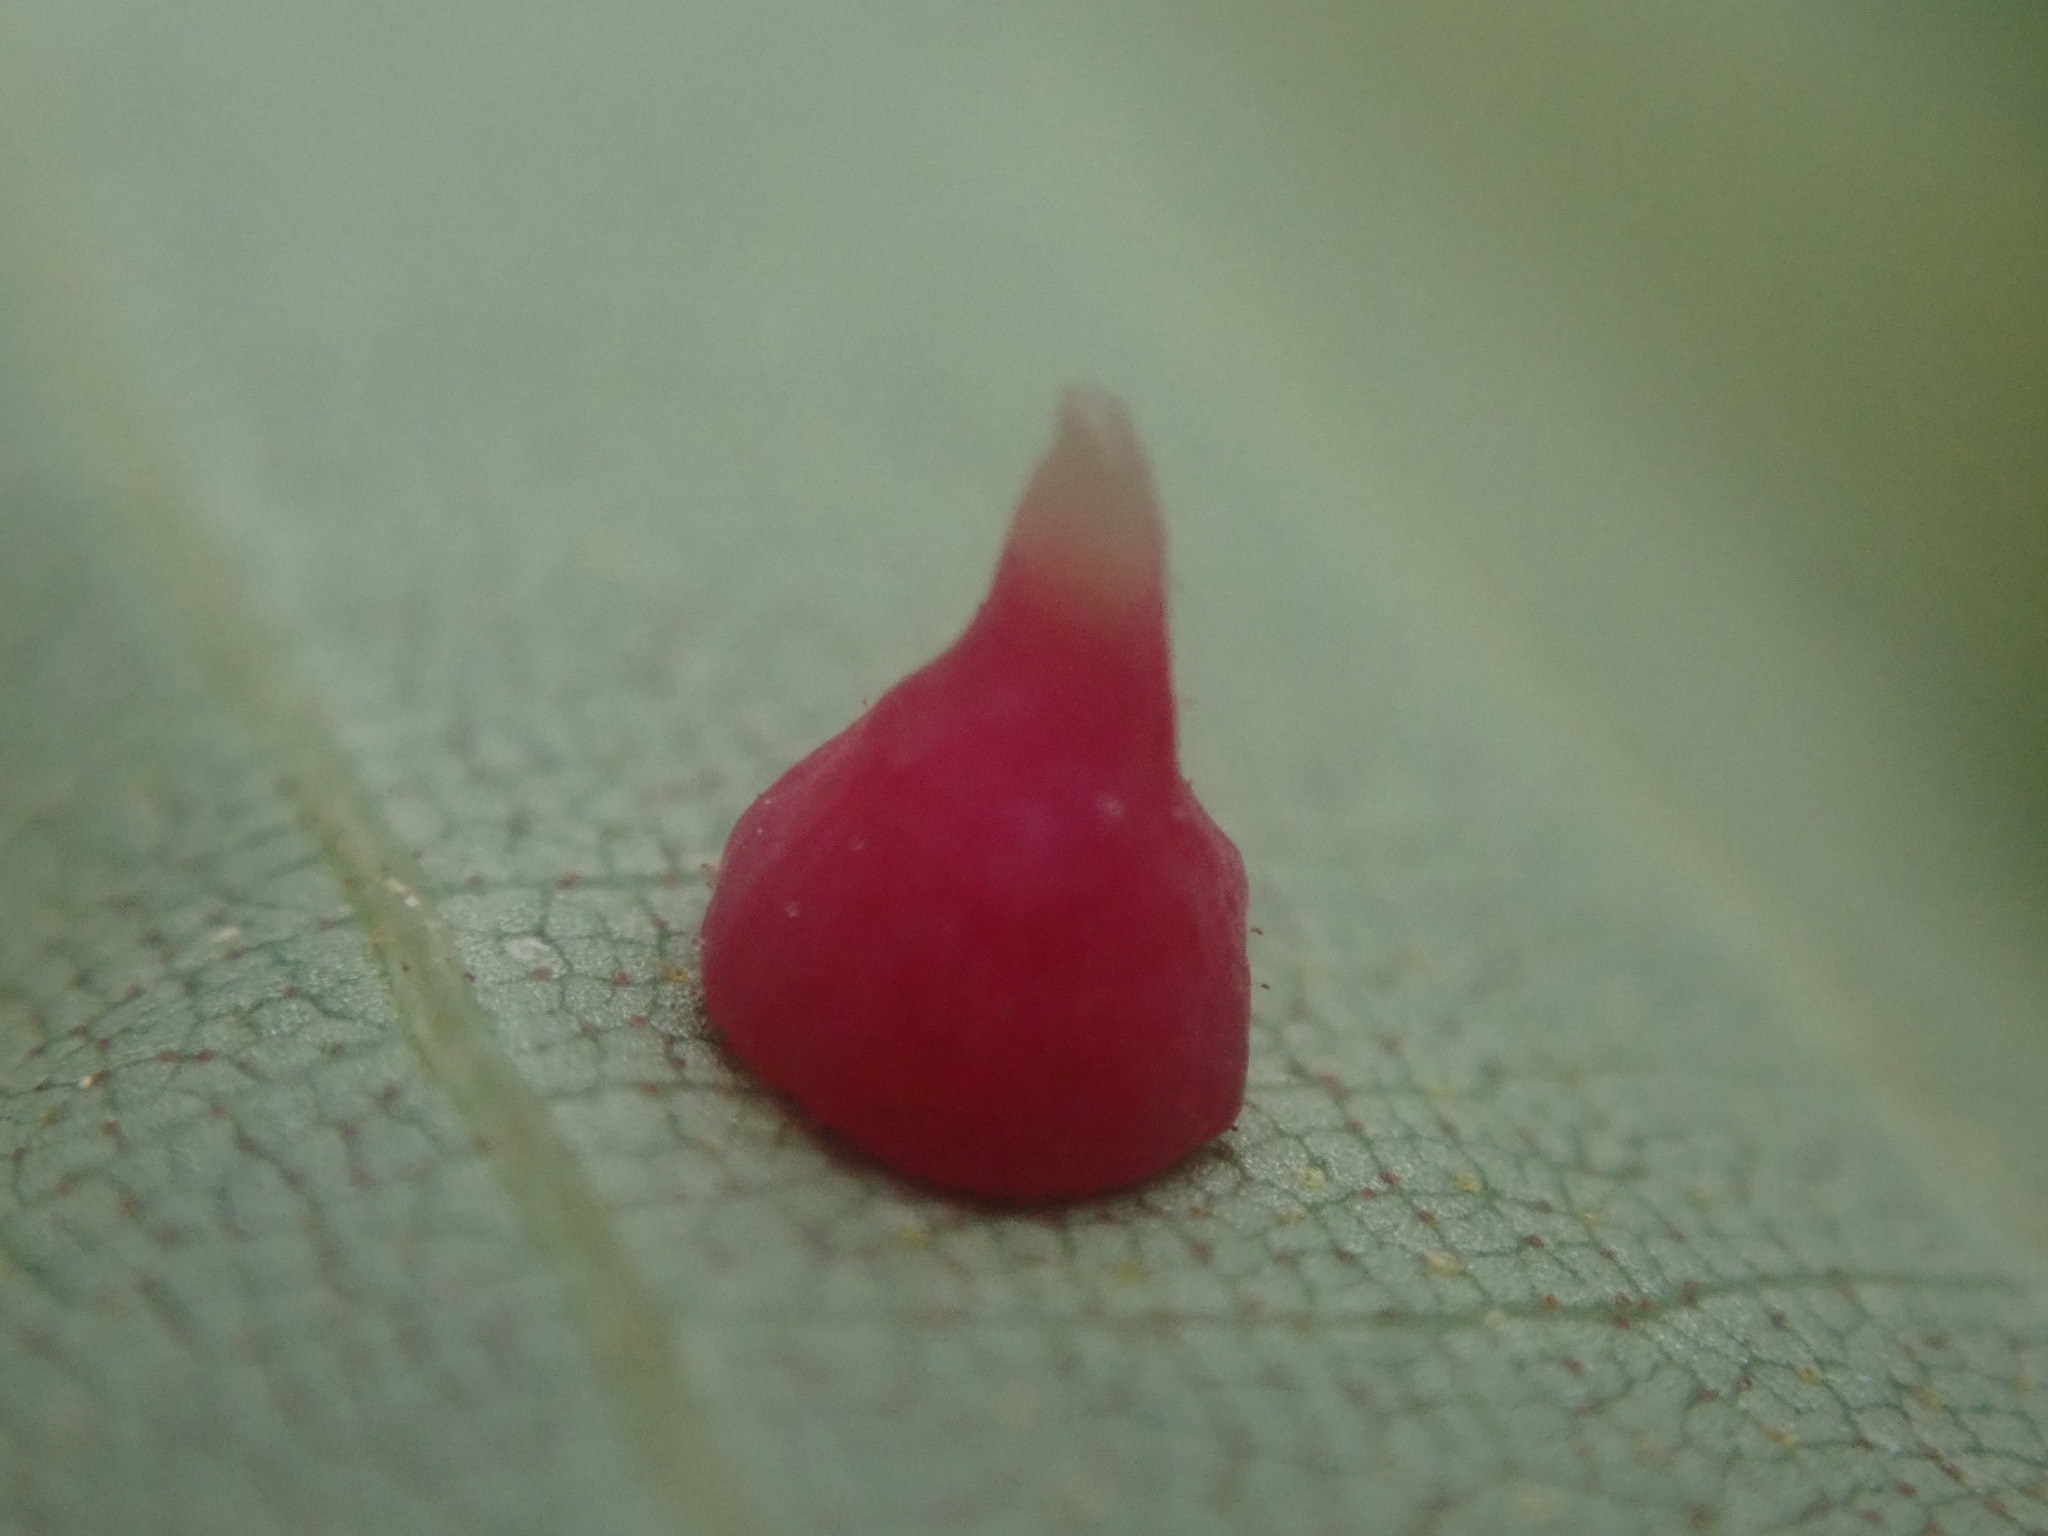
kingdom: Animalia
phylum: Arthropoda
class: Insecta
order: Diptera
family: Cecidomyiidae
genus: Caryomyia
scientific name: Caryomyia sanguinolenta
